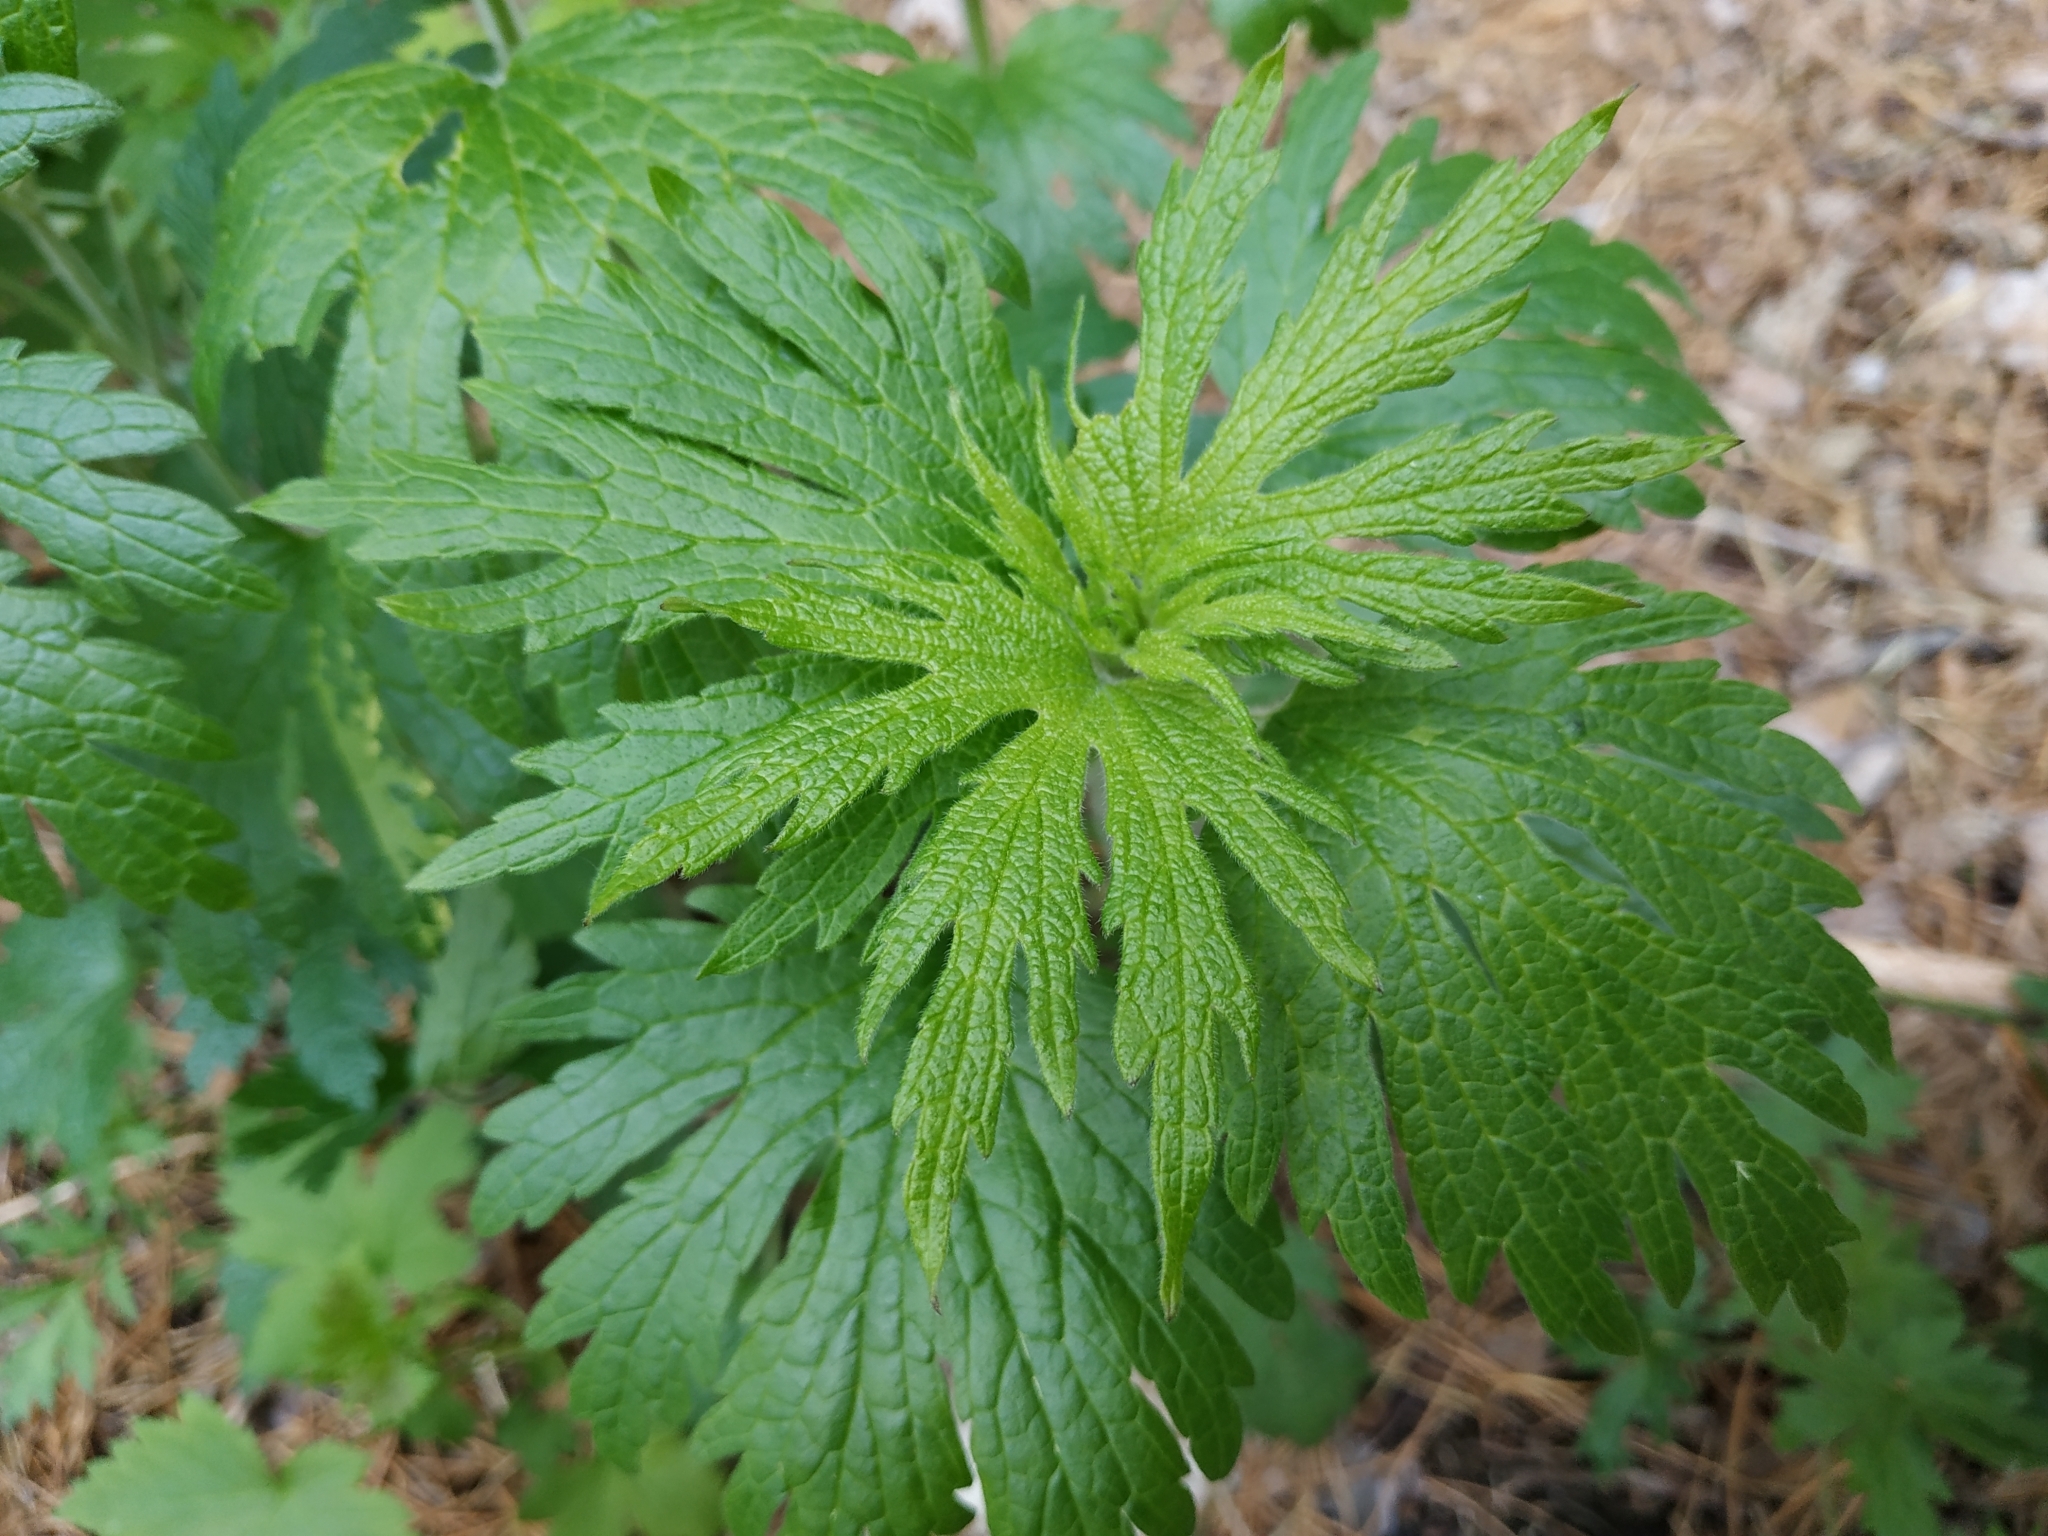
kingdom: Plantae
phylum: Tracheophyta
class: Magnoliopsida
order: Lamiales
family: Lamiaceae
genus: Leonurus
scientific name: Leonurus quinquelobatus
